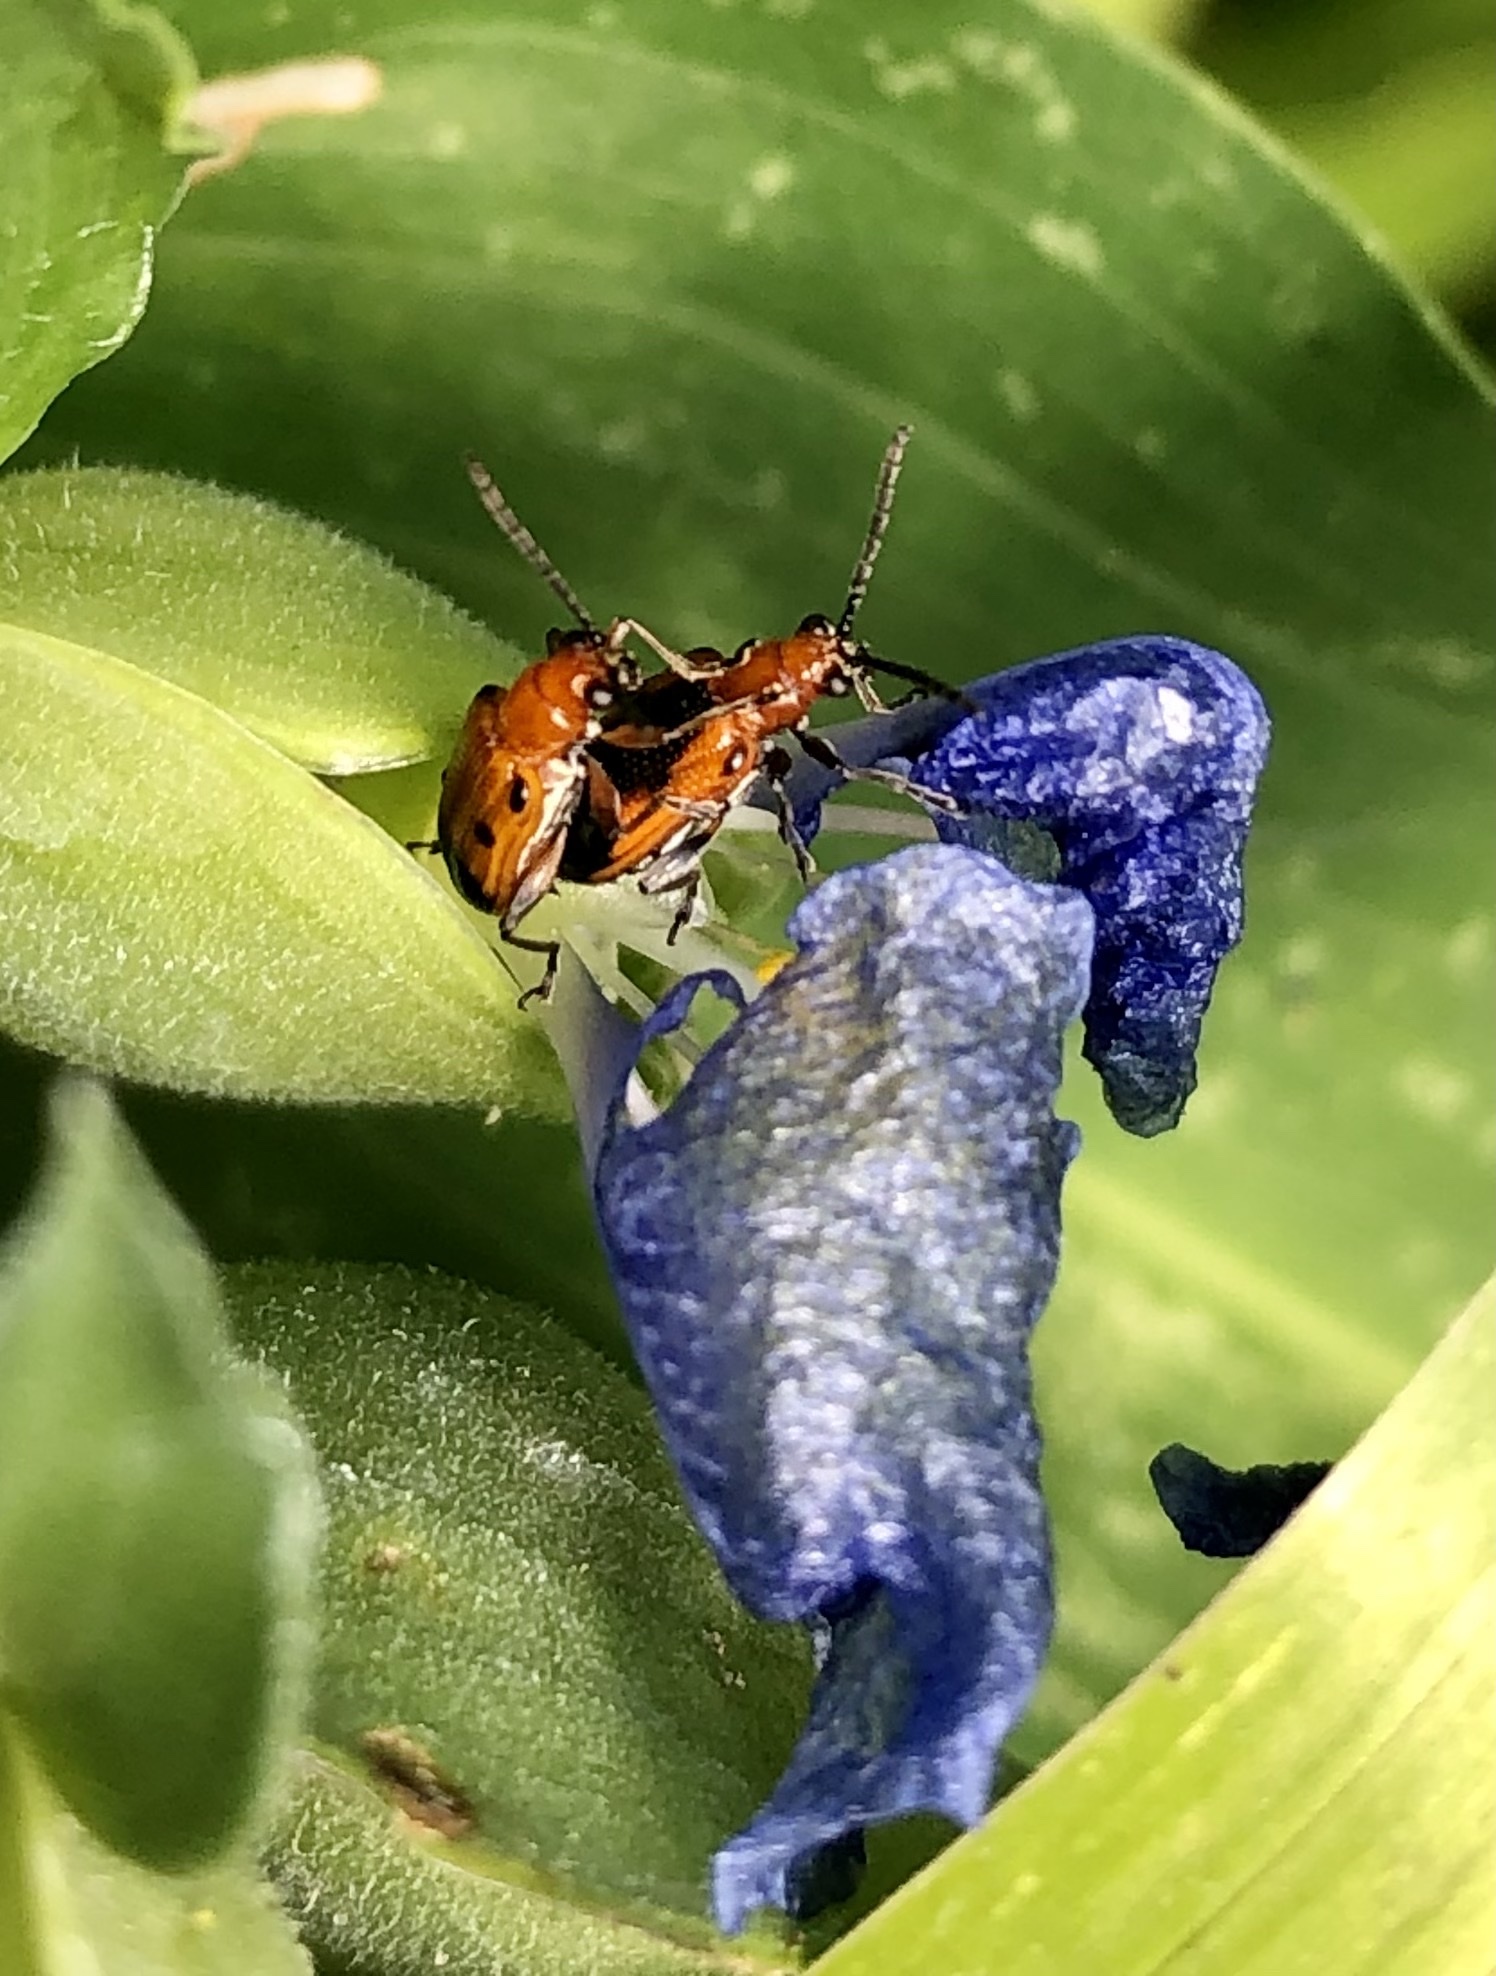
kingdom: Animalia
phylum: Arthropoda
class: Insecta
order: Coleoptera
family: Chrysomelidae
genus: Neolema
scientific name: Neolema dorsalis
